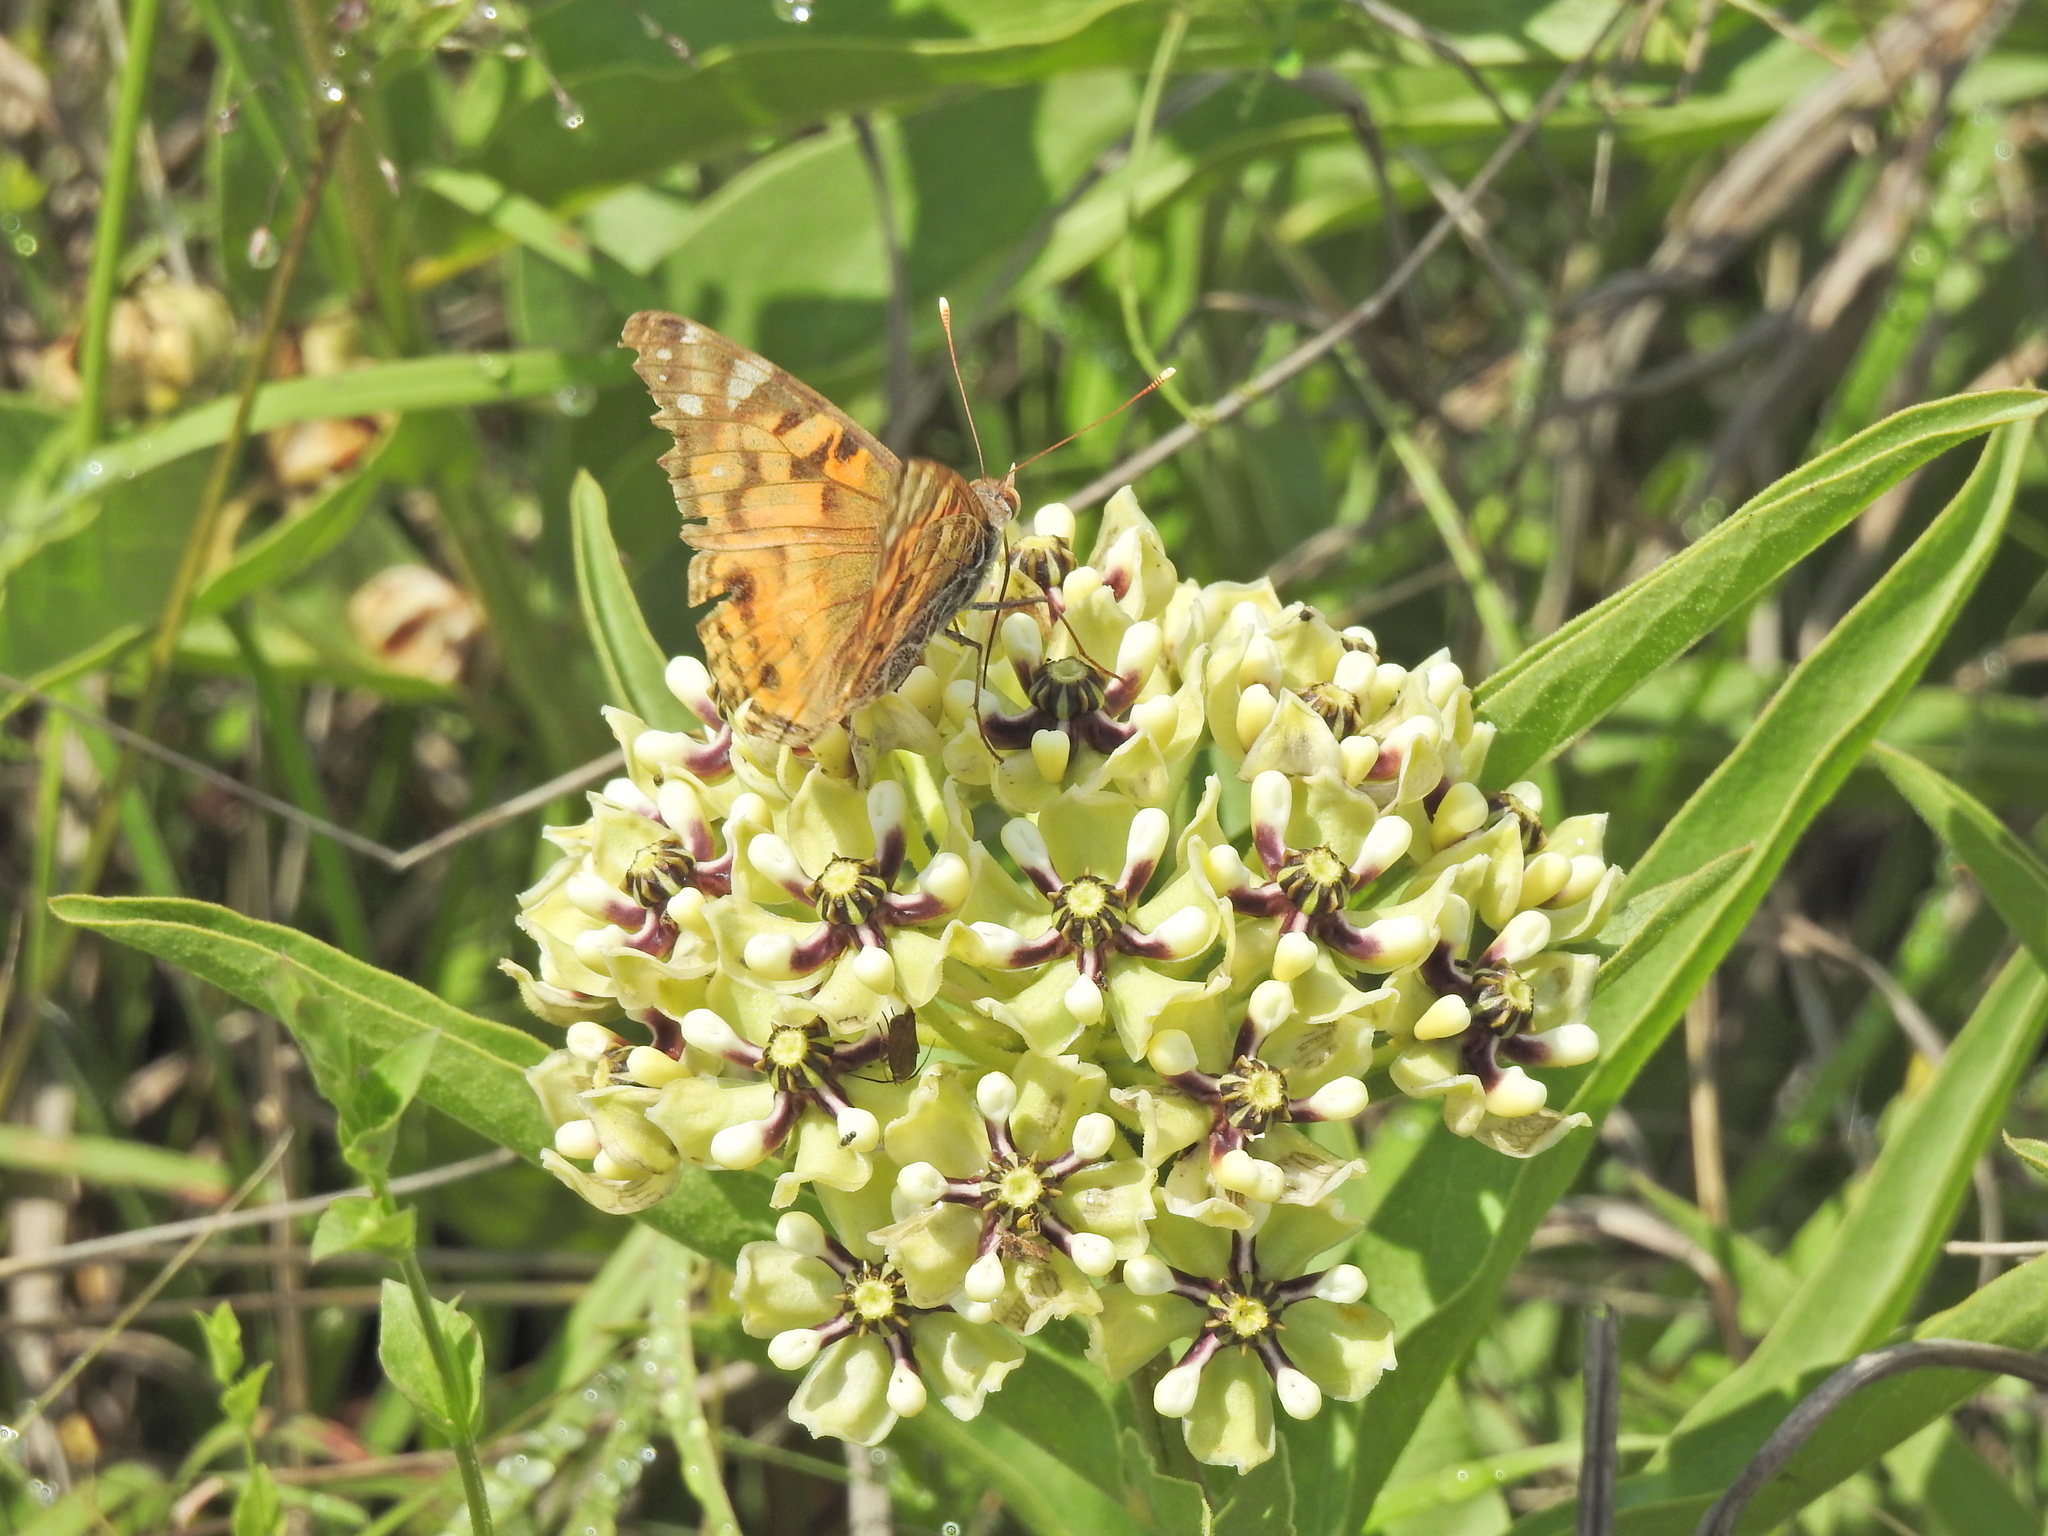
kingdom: Animalia
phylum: Arthropoda
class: Insecta
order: Lepidoptera
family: Nymphalidae
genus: Vanessa
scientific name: Vanessa virginiensis
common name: American lady
